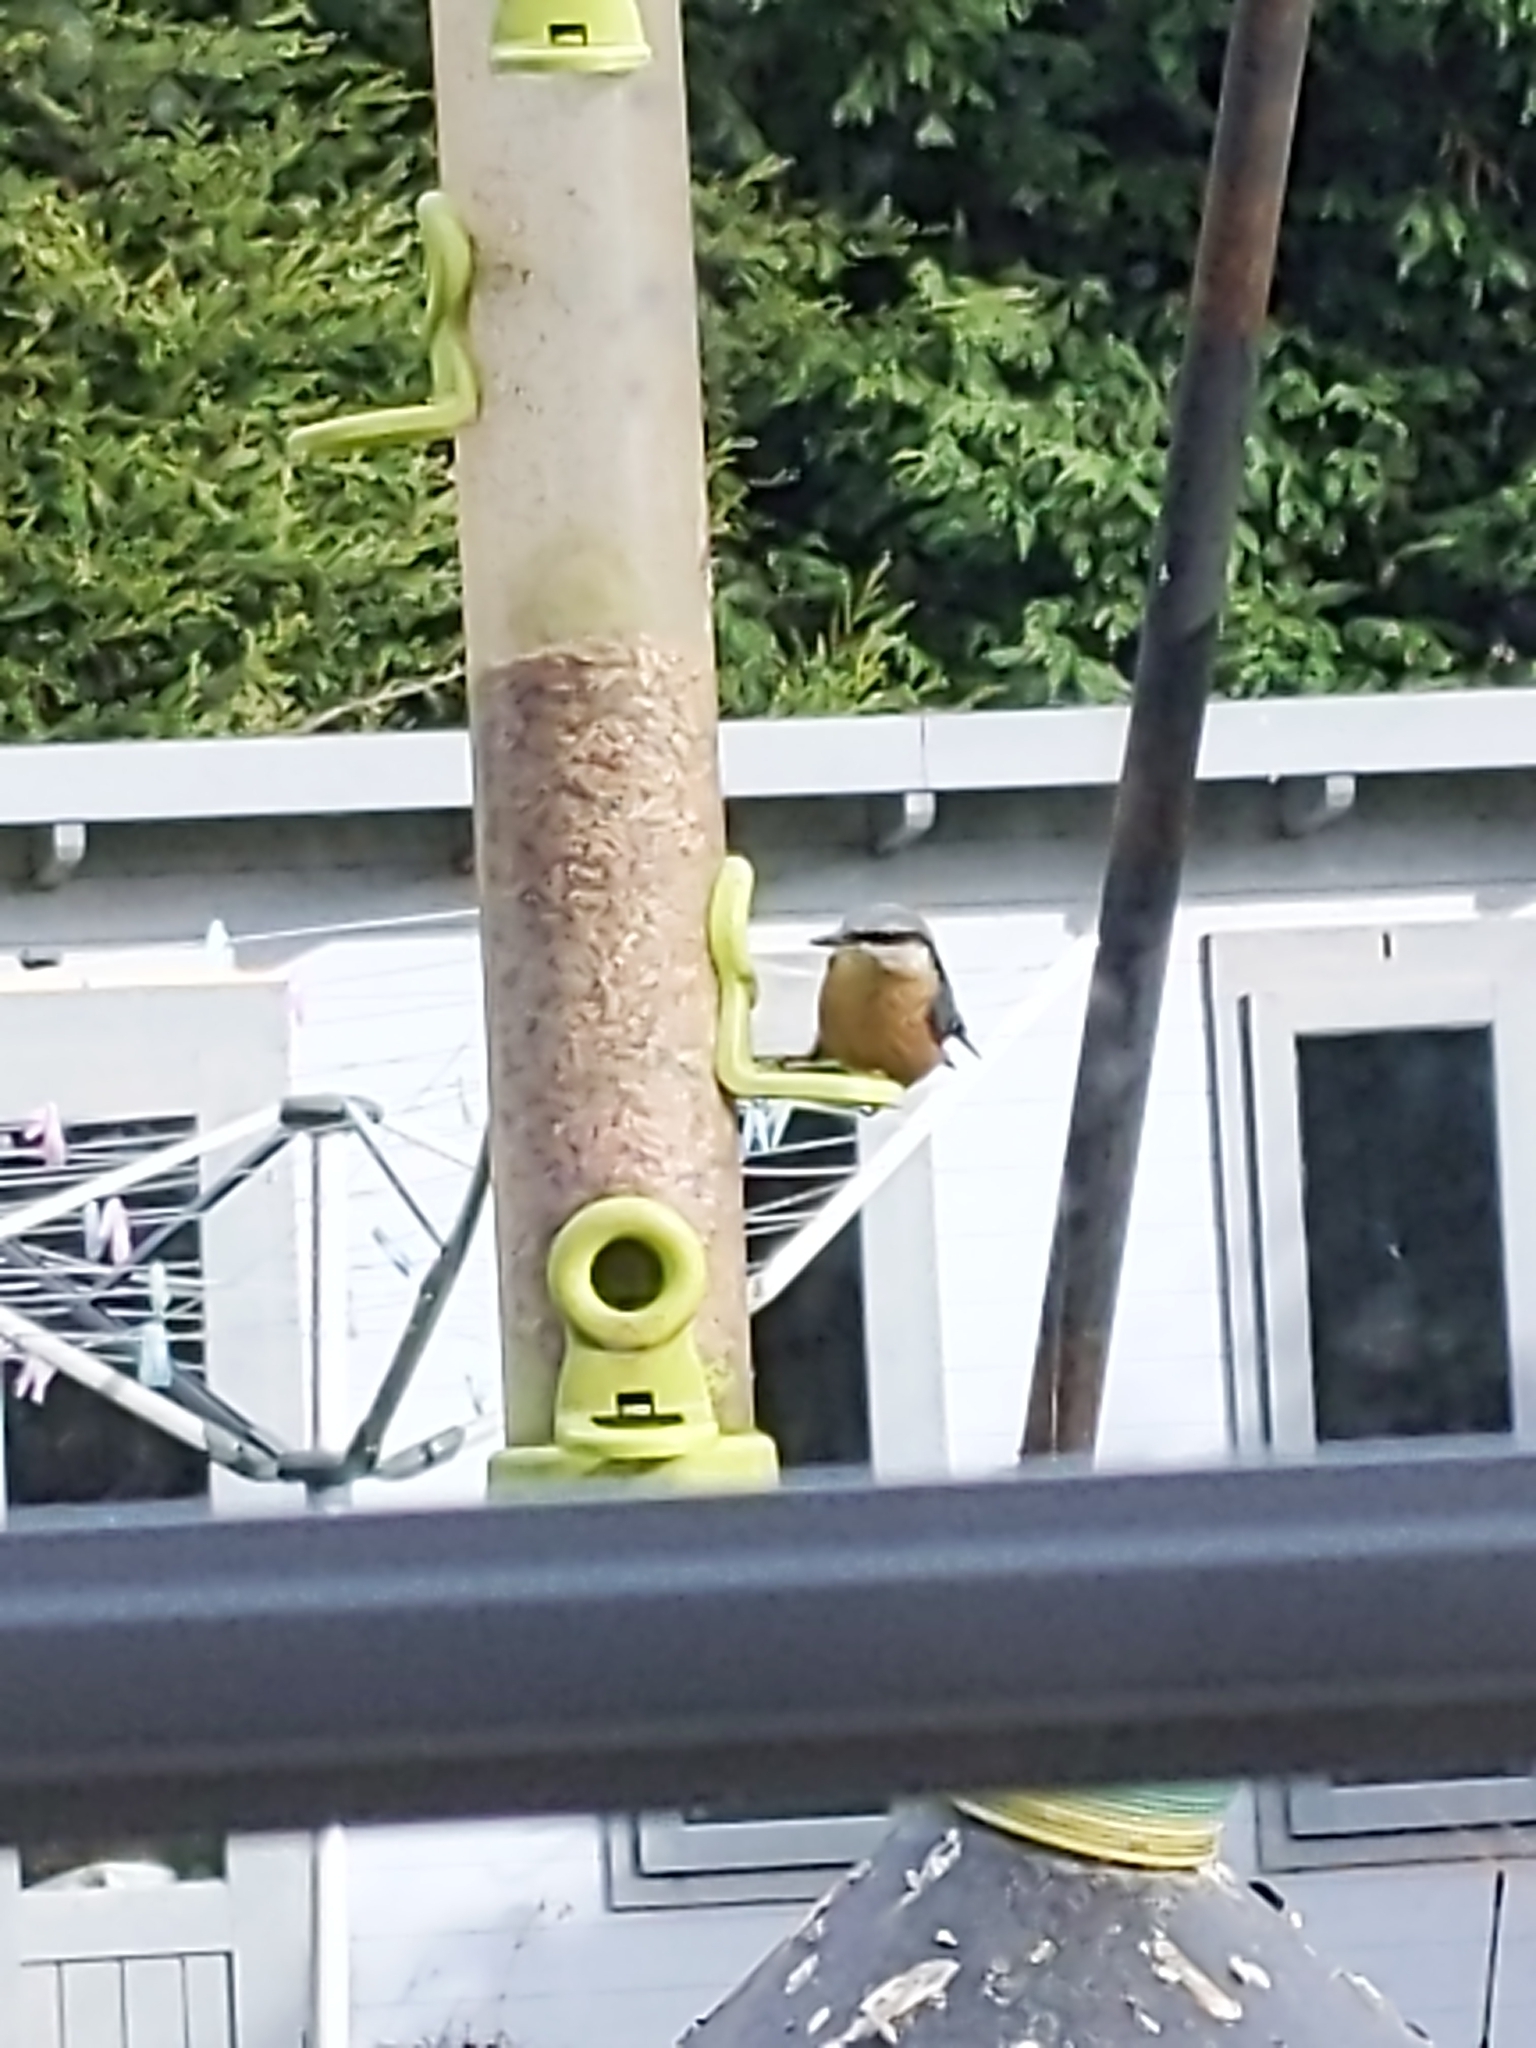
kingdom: Animalia
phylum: Chordata
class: Aves
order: Passeriformes
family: Sittidae
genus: Sitta
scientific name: Sitta europaea
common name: Eurasian nuthatch
